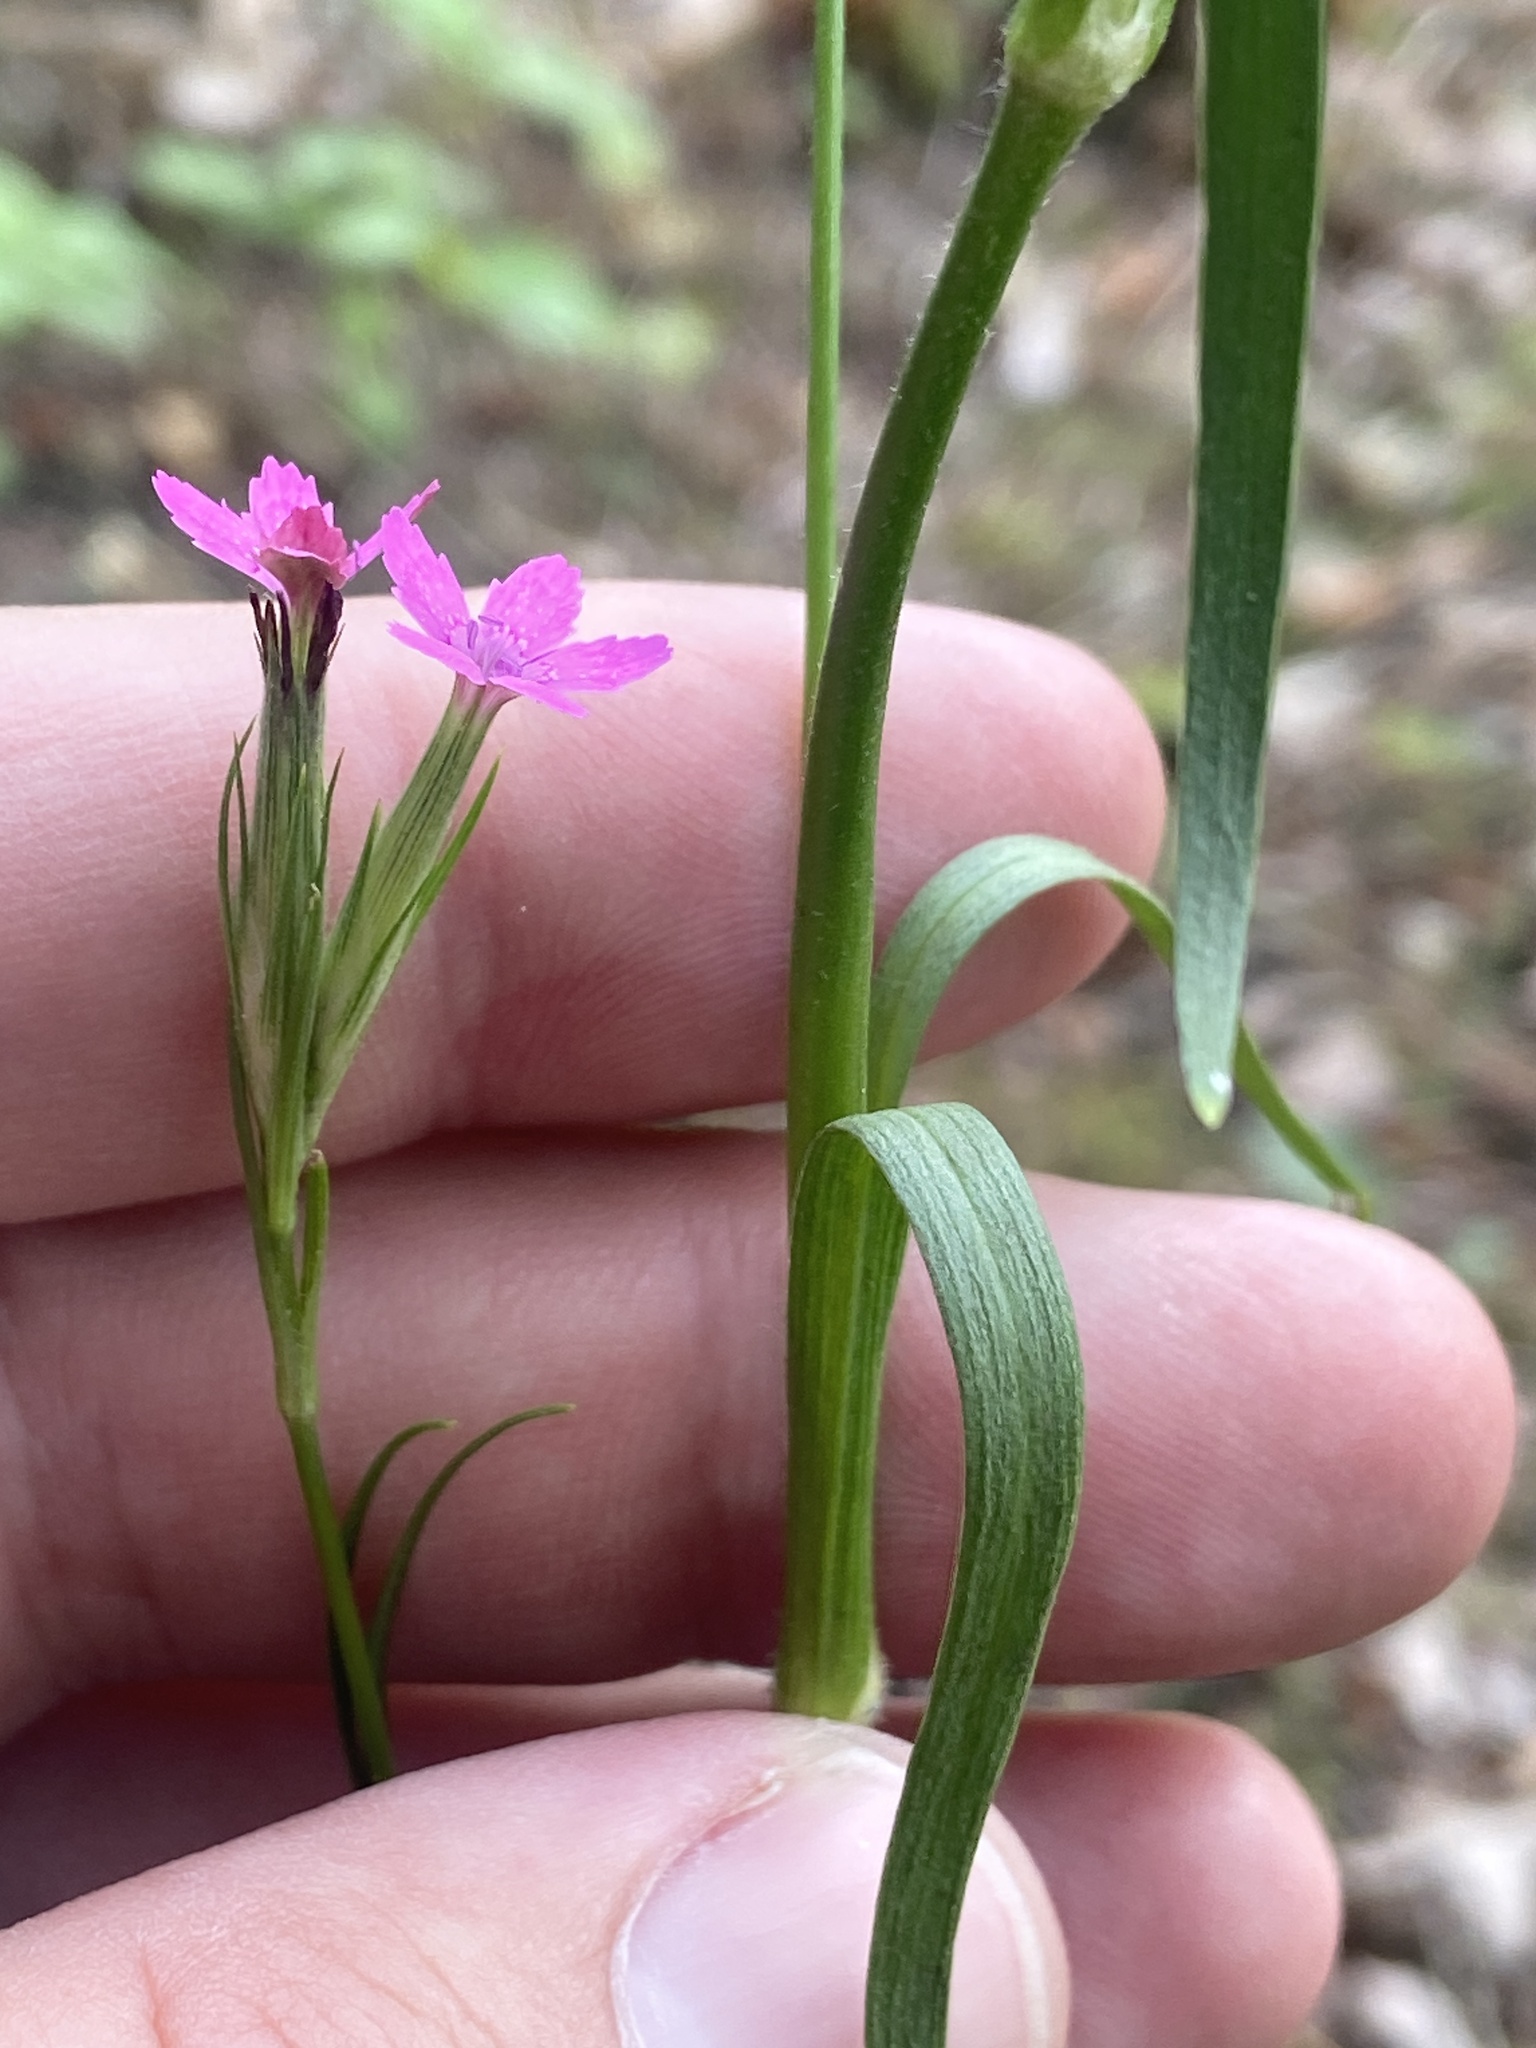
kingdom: Plantae
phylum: Tracheophyta
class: Magnoliopsida
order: Caryophyllales
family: Caryophyllaceae
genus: Dianthus
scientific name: Dianthus armeria
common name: Deptford pink
